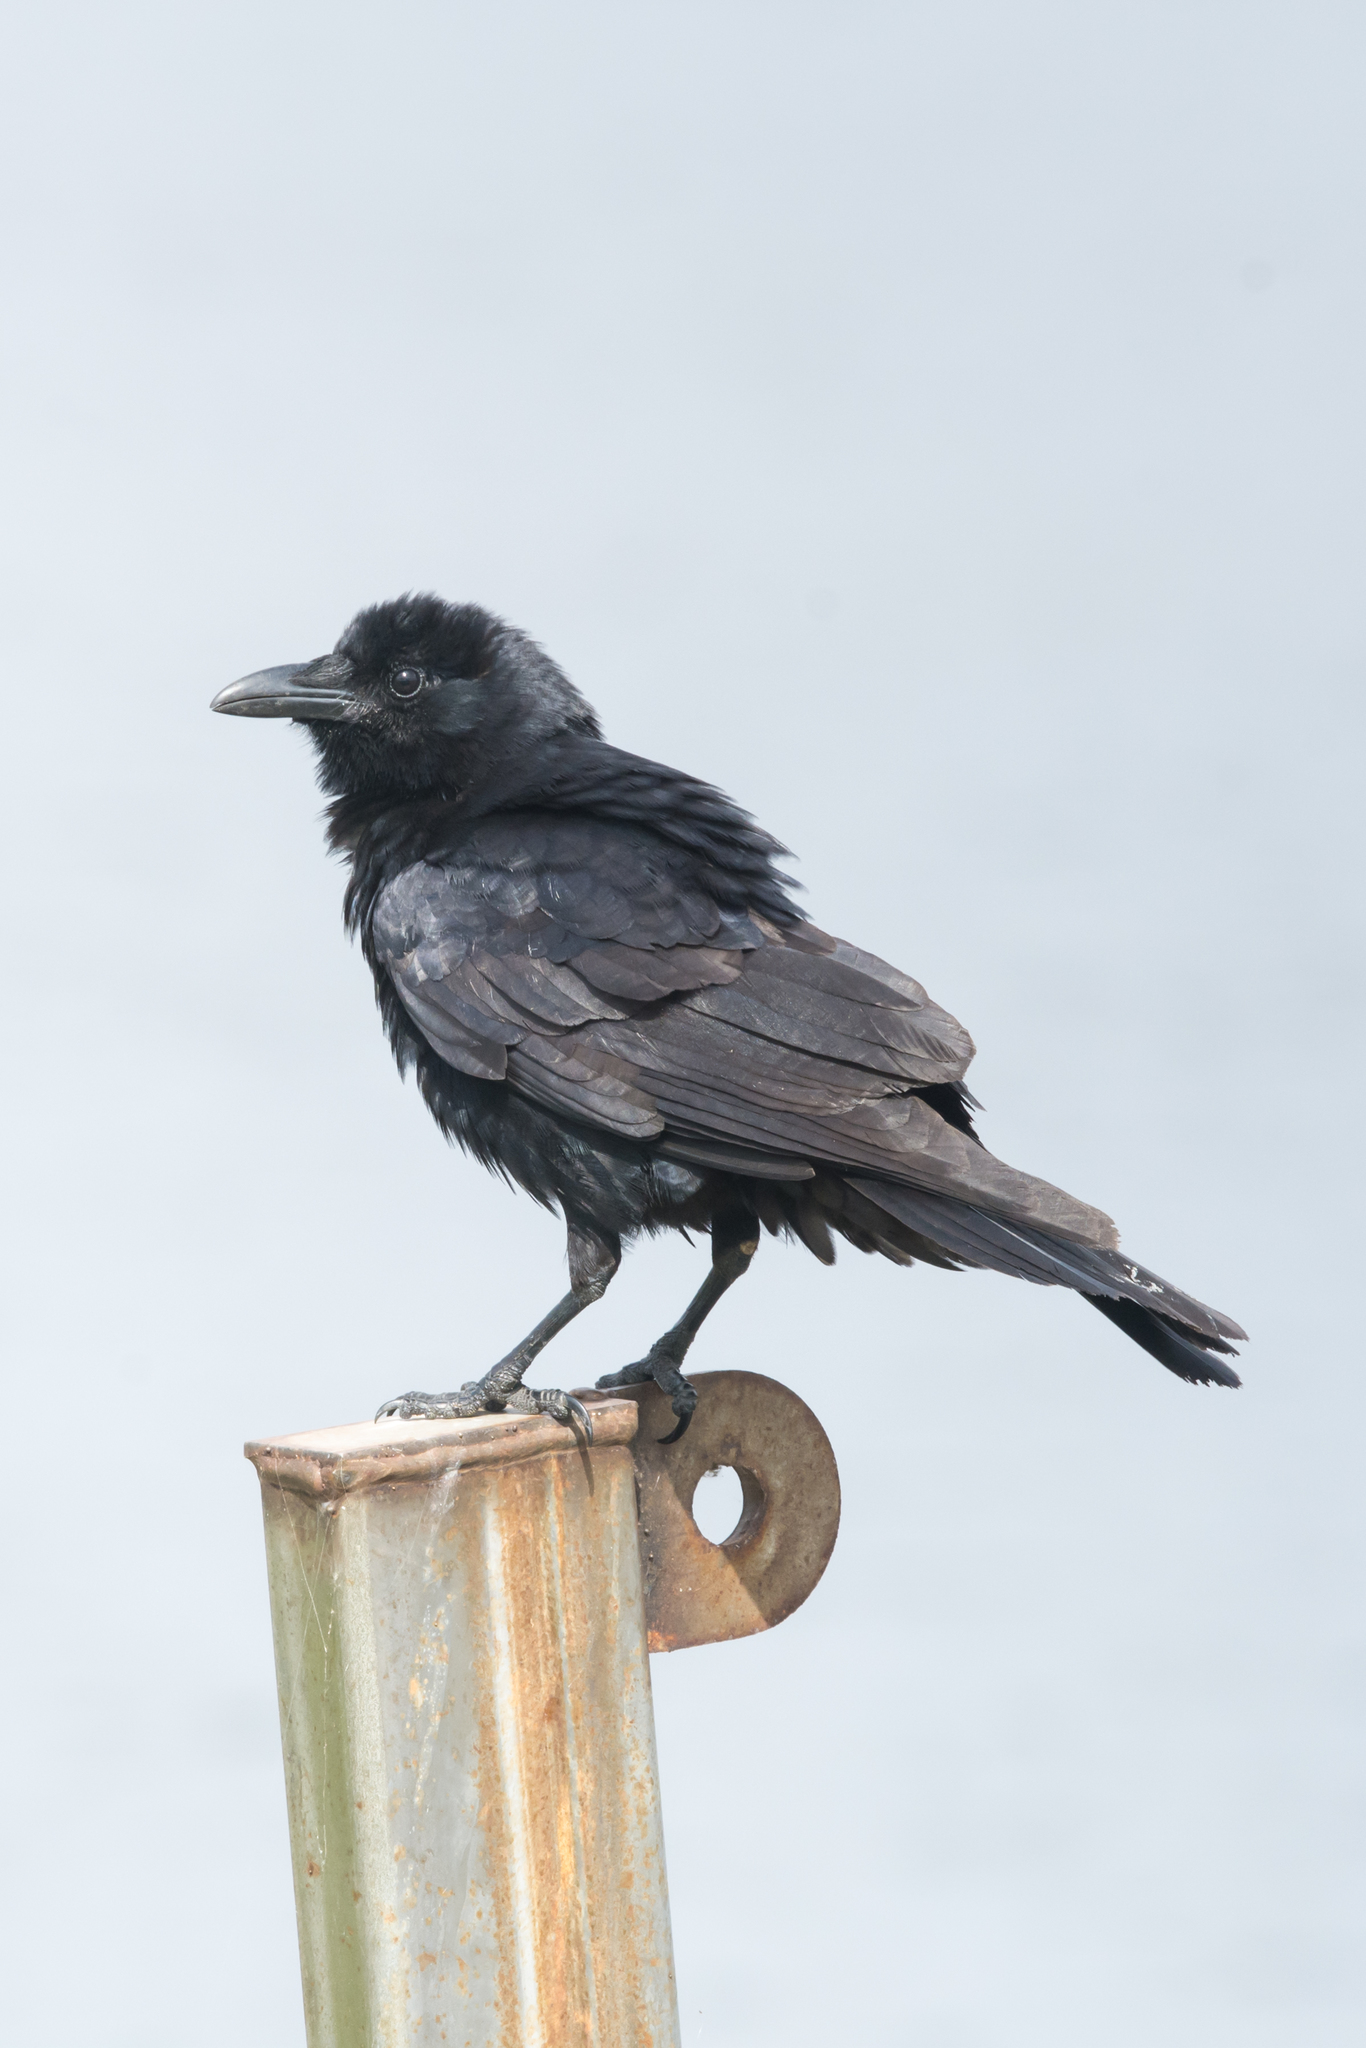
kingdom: Animalia
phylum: Chordata
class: Aves
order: Passeriformes
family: Corvidae
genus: Corvus
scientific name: Corvus ossifragus
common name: Fish crow
